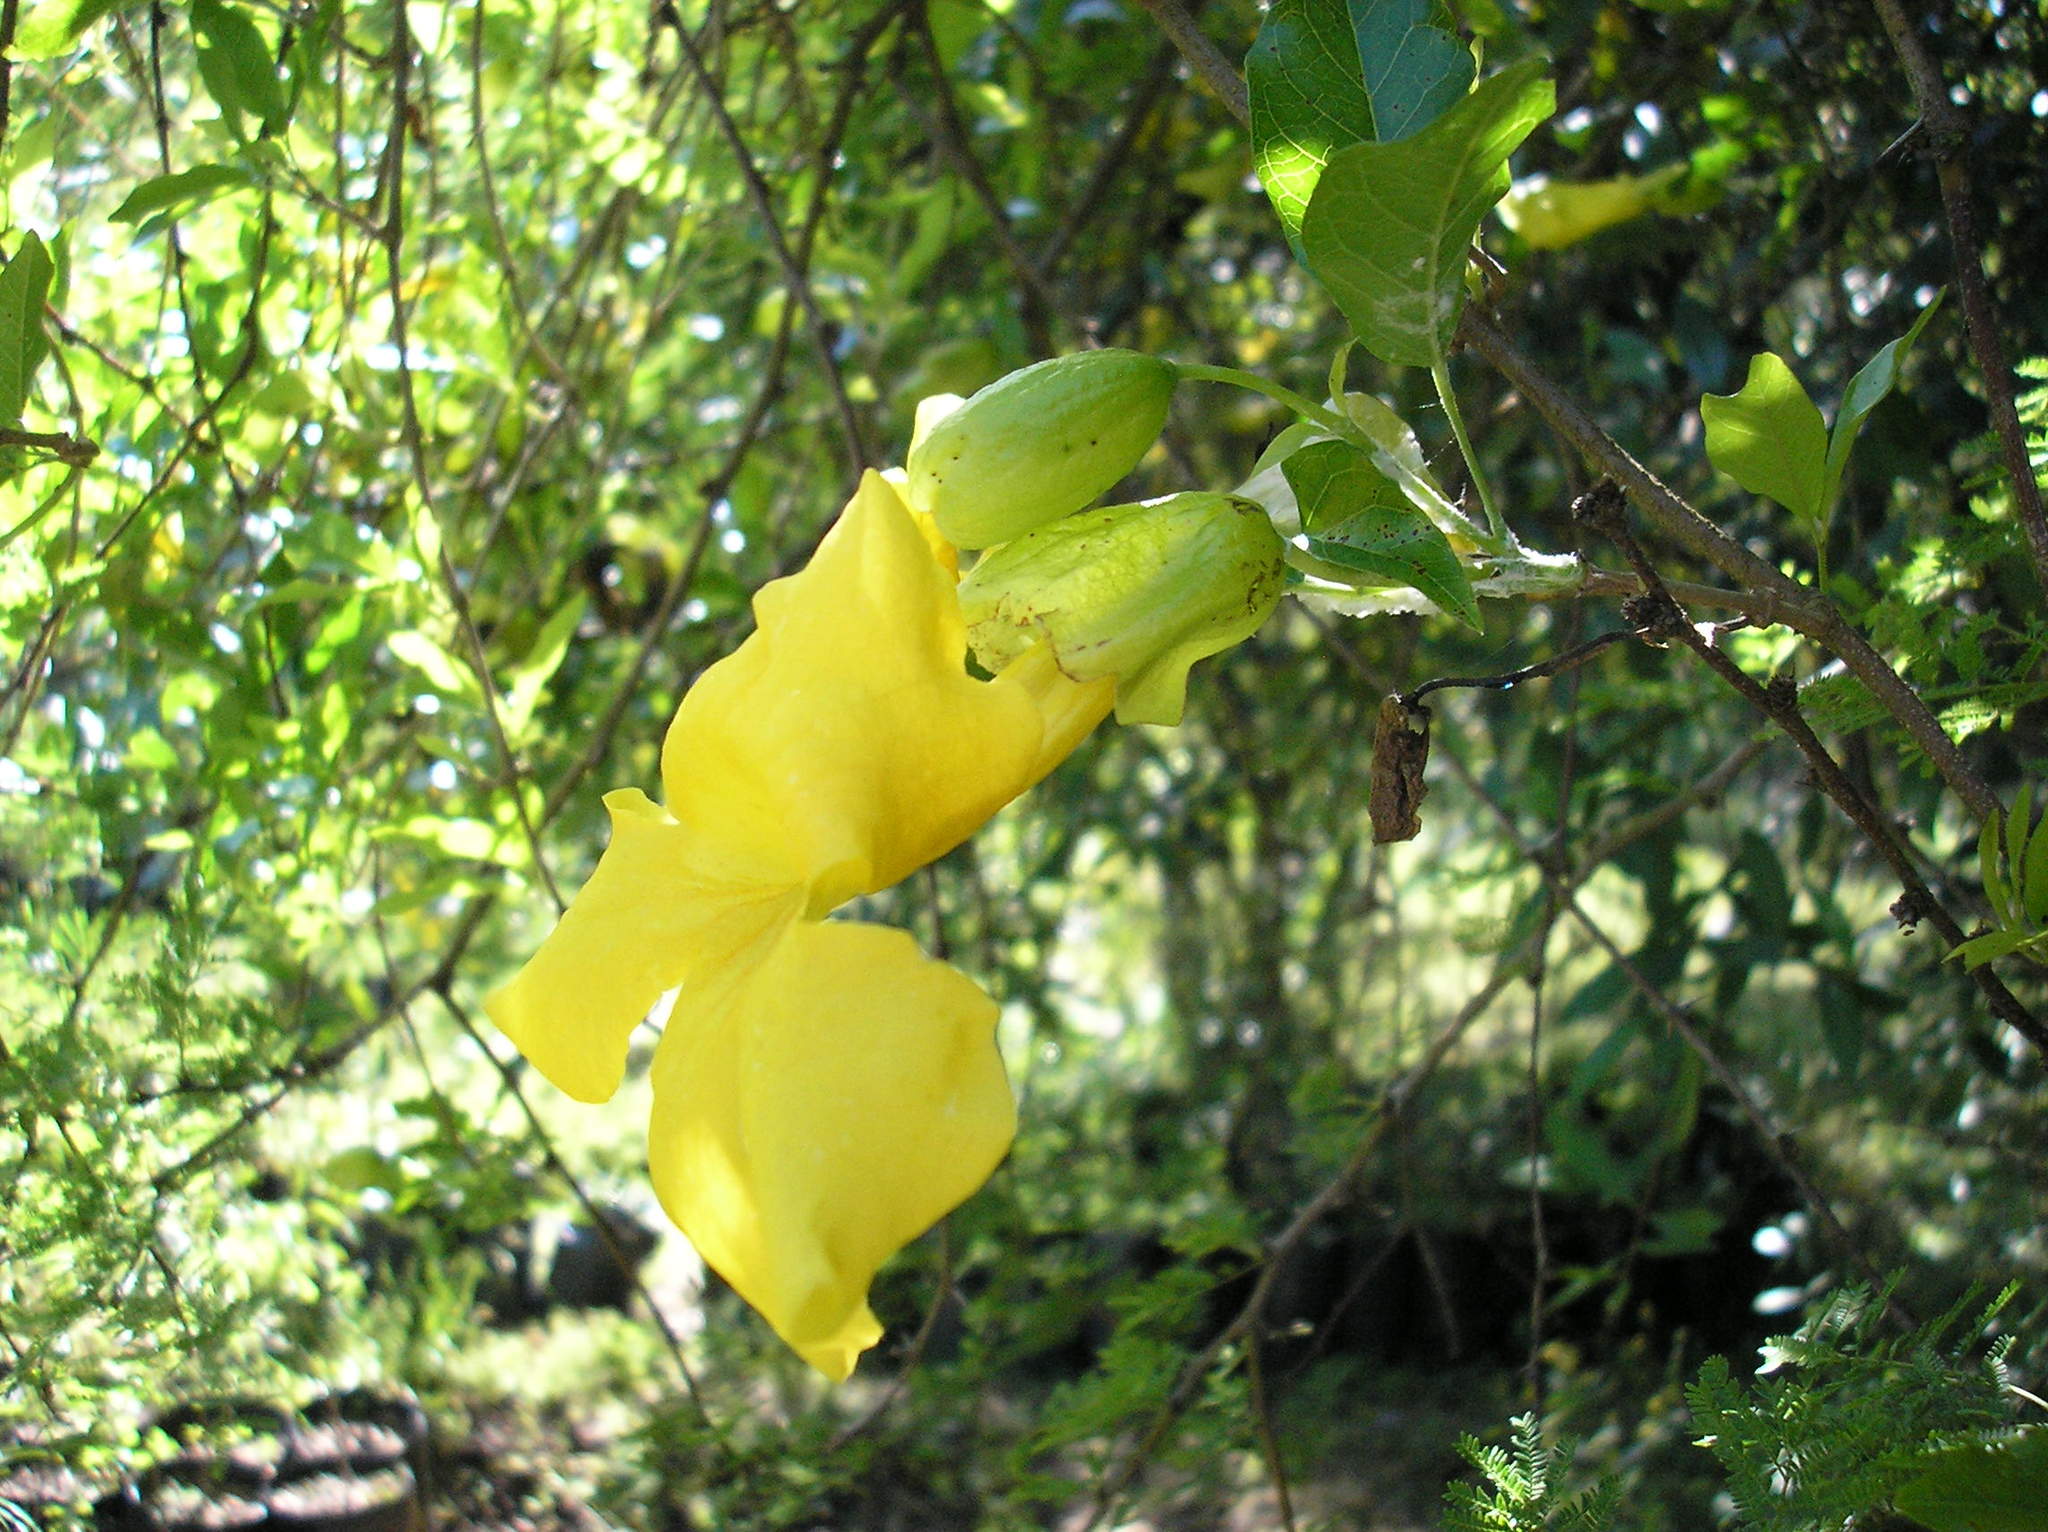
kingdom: Plantae
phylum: Tracheophyta
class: Magnoliopsida
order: Lamiales
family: Bignoniaceae
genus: Dolichandra
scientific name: Dolichandra unguis-cati
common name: Catclaw vine
